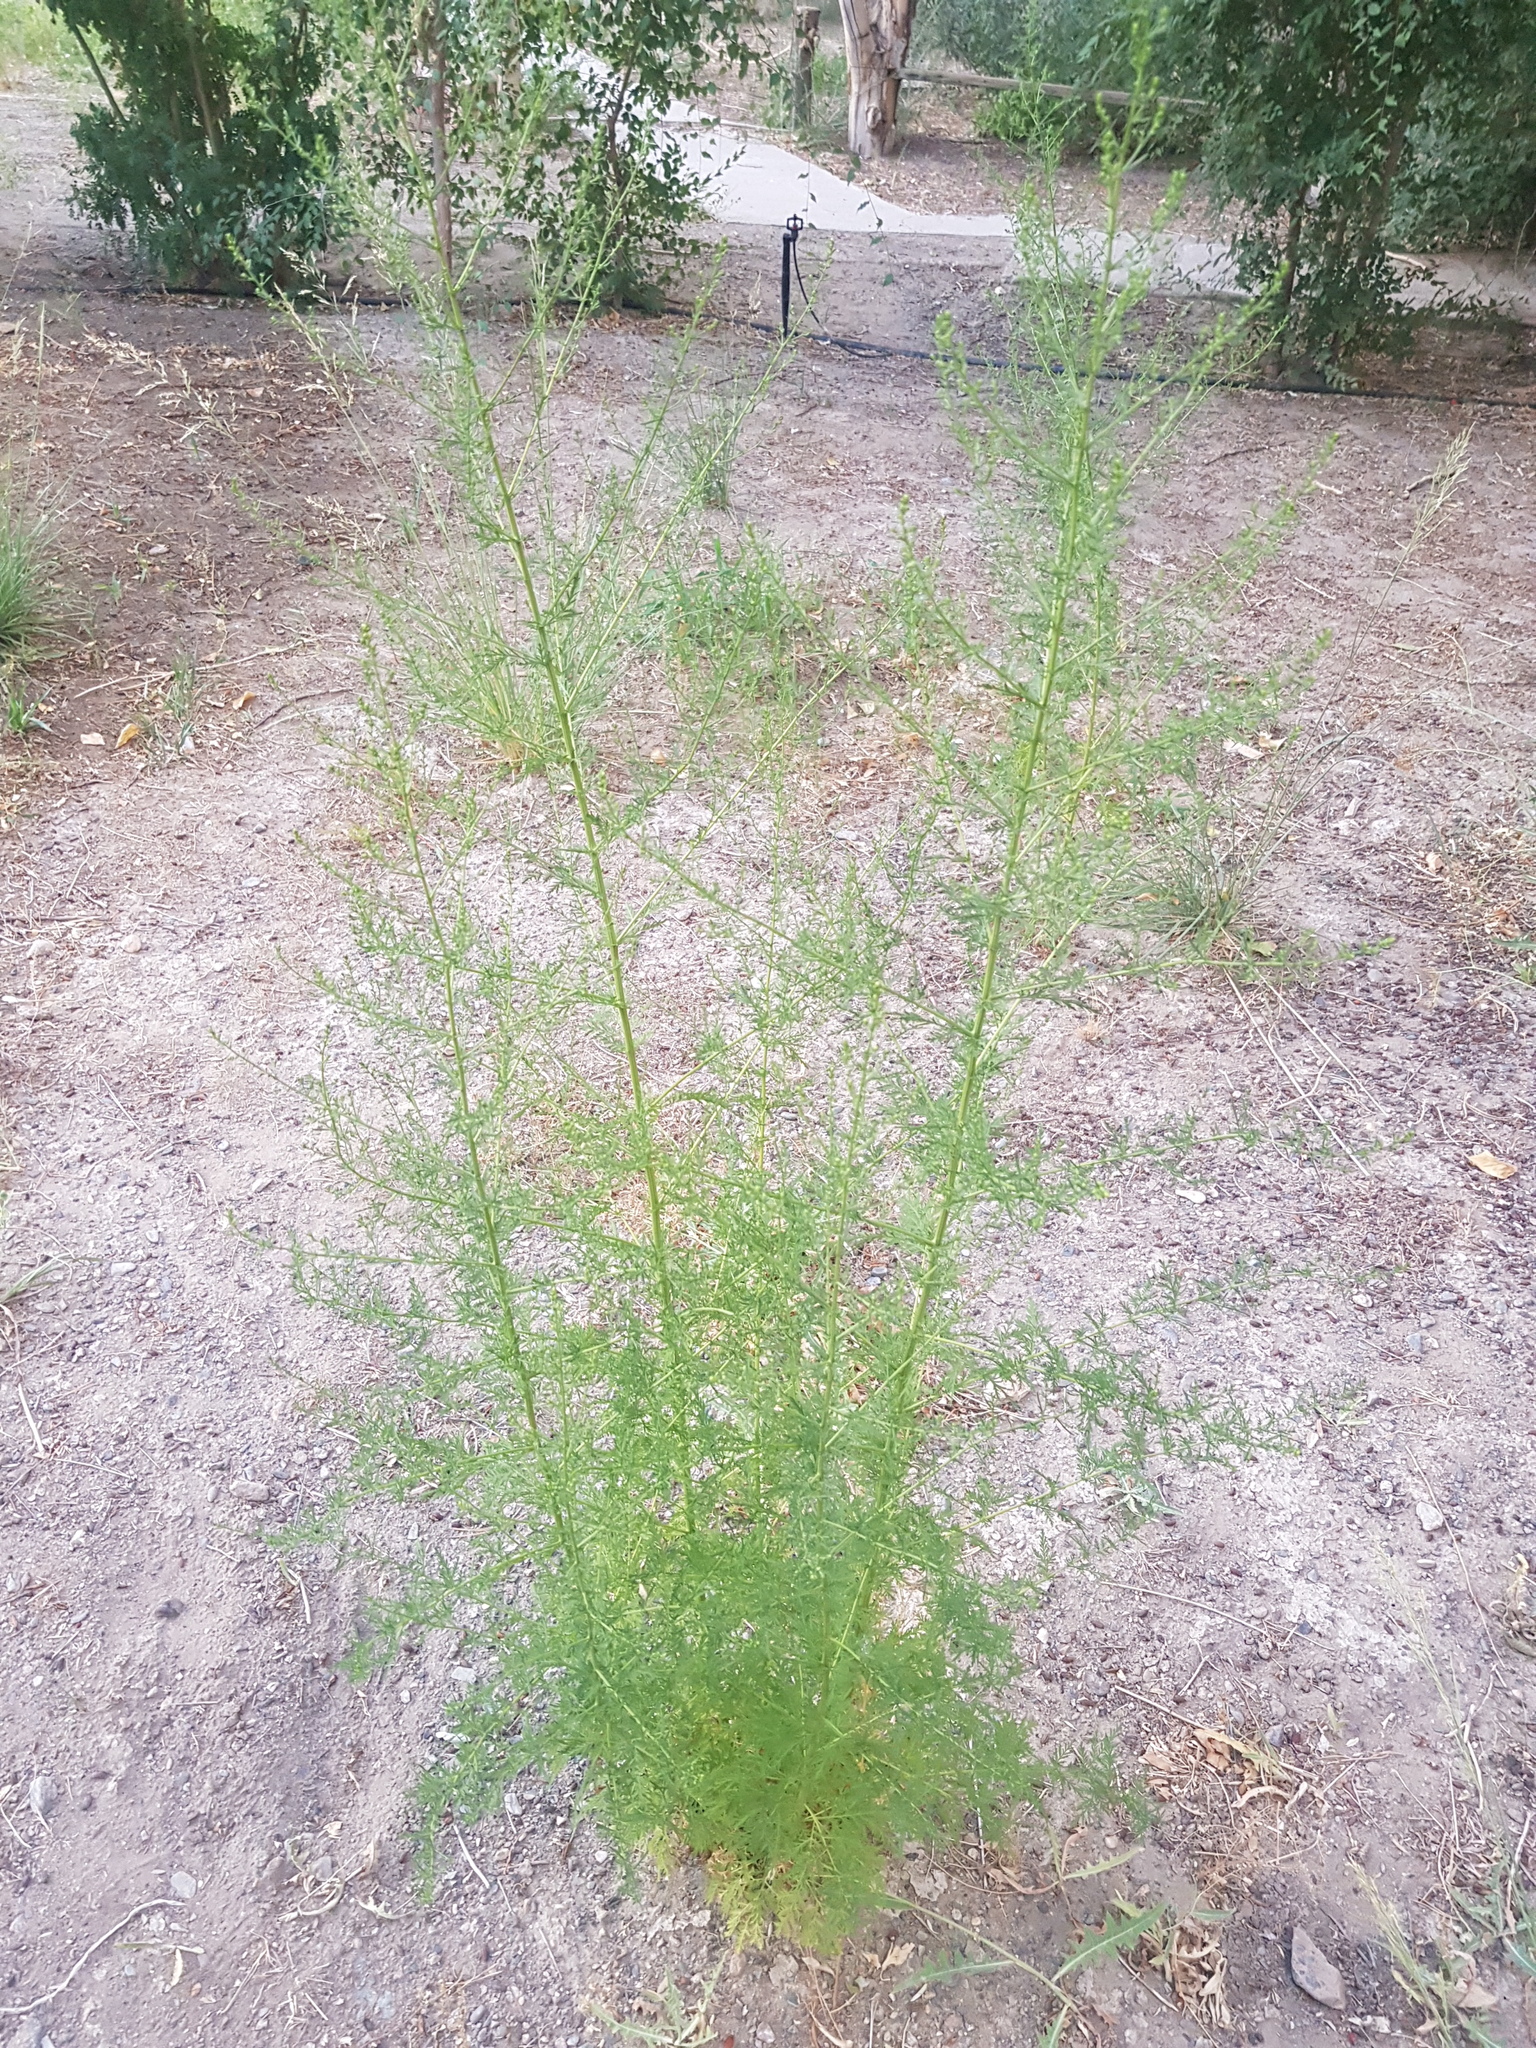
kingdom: Plantae
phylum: Tracheophyta
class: Magnoliopsida
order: Asterales
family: Asteraceae
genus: Artemisia
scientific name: Artemisia annua
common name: Sweet sagewort
